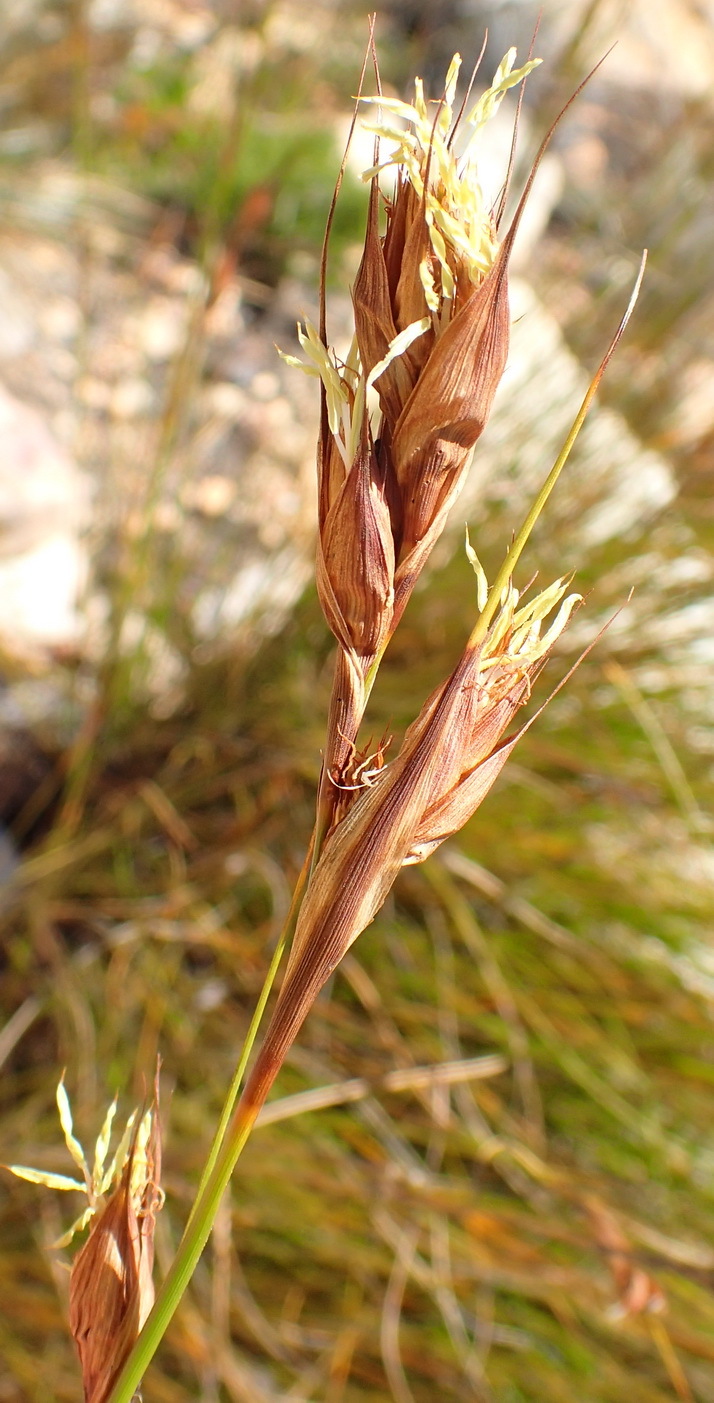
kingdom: Plantae
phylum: Tracheophyta
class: Liliopsida
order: Poales
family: Cyperaceae
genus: Tetraria
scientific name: Tetraria fourcadei
